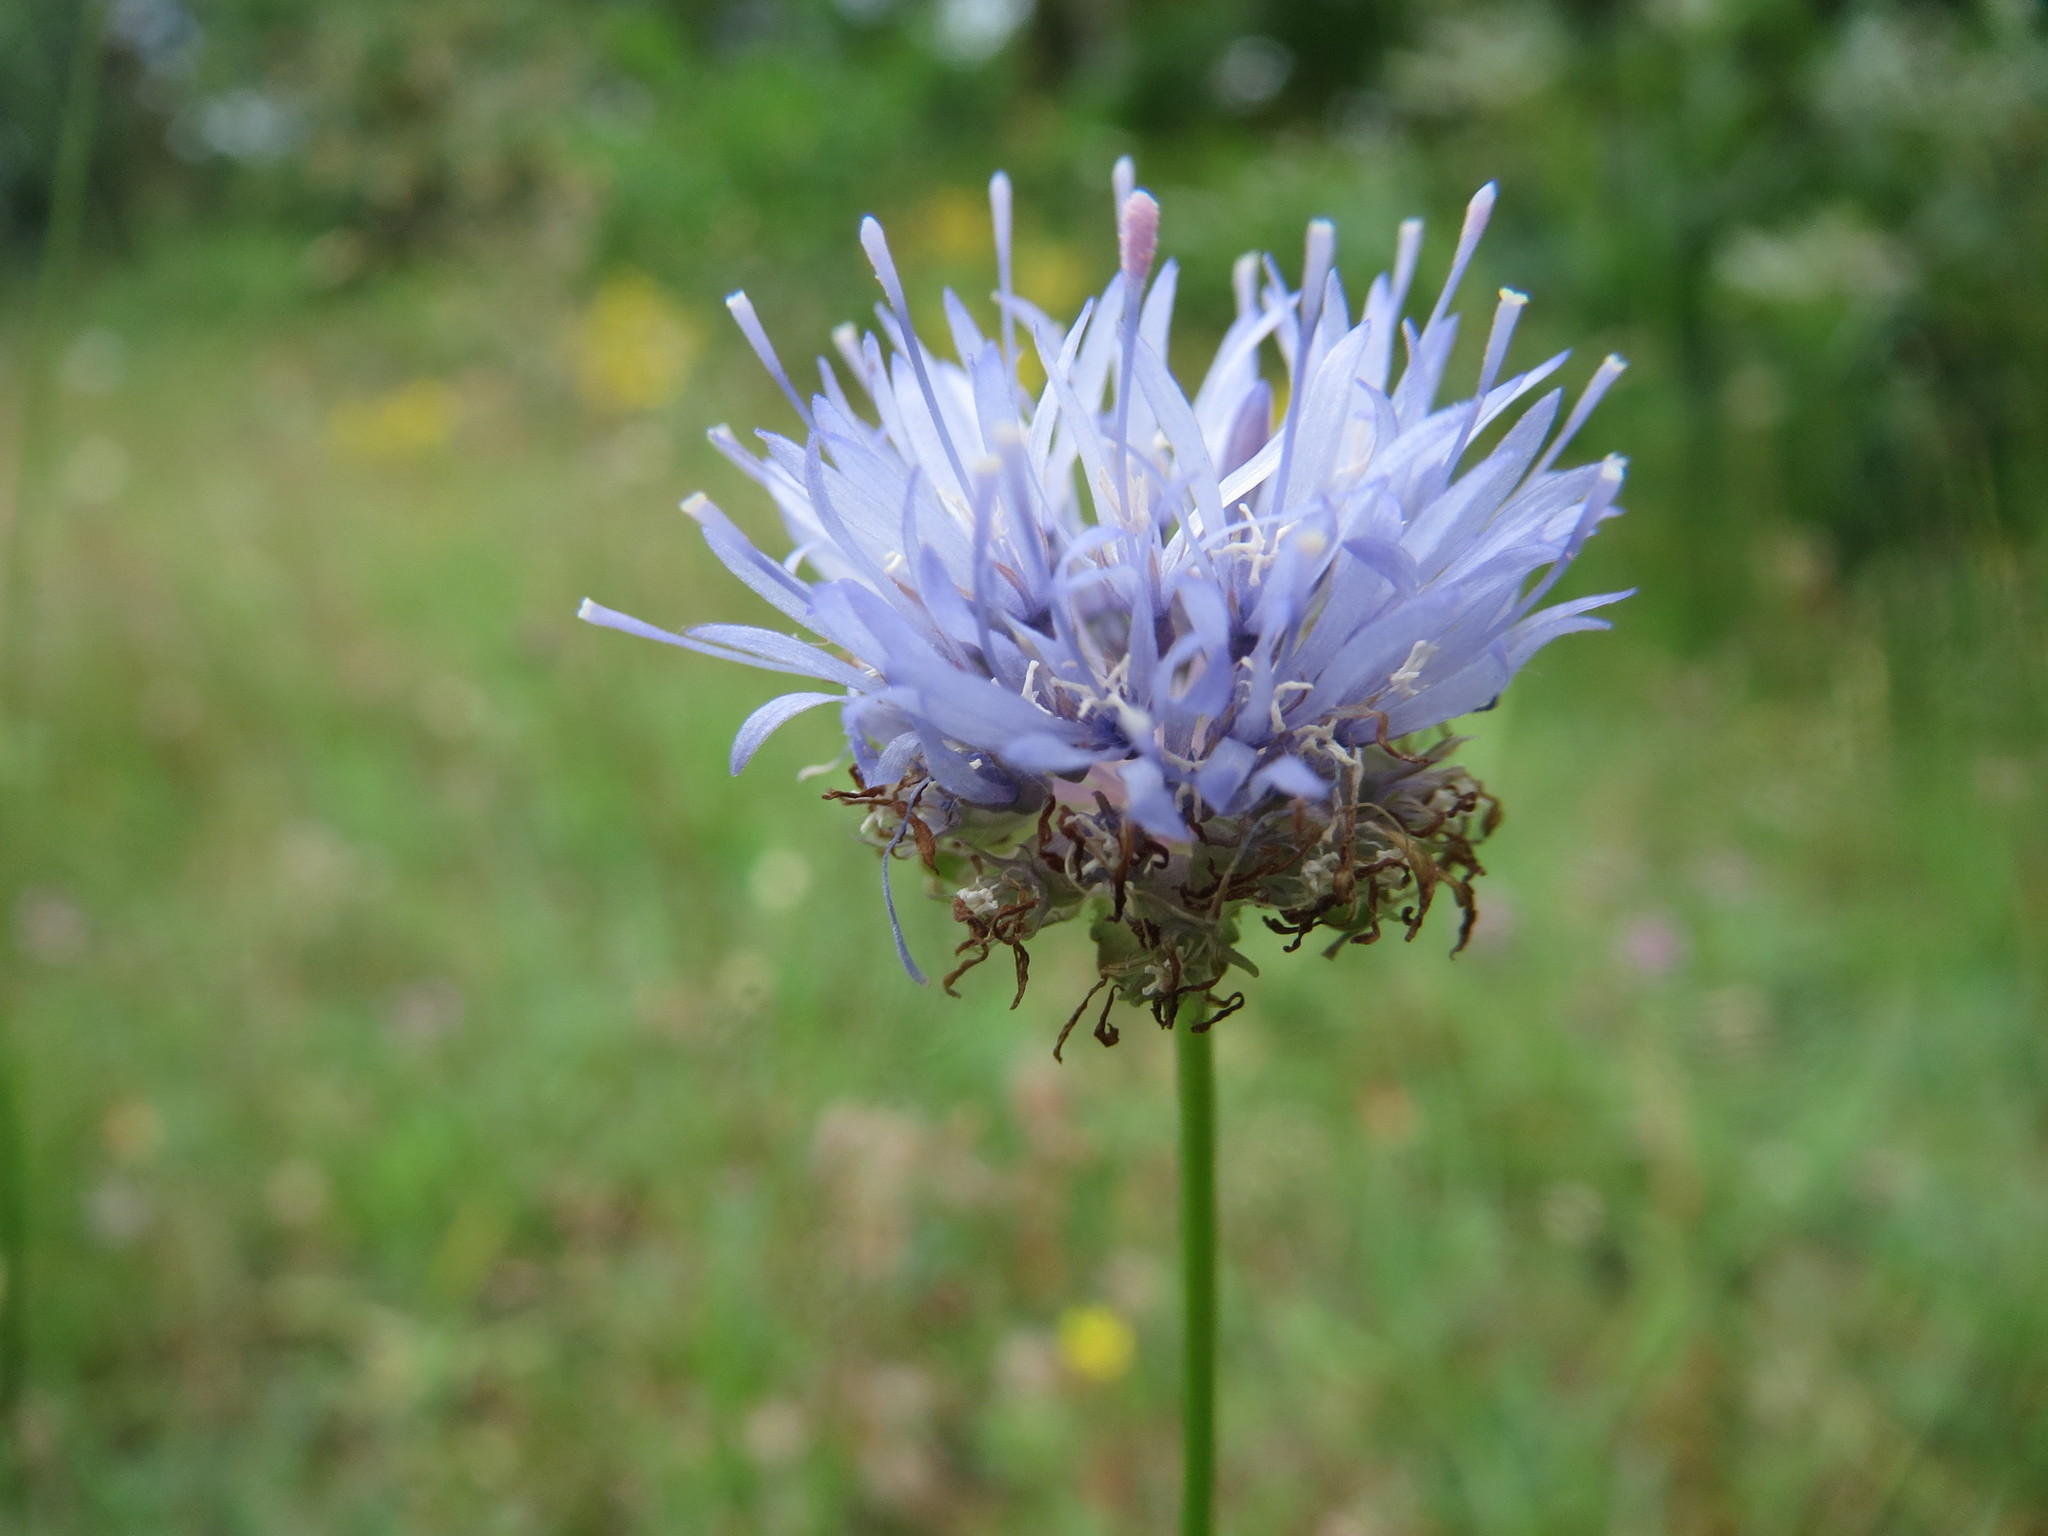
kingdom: Plantae
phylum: Tracheophyta
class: Magnoliopsida
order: Asterales
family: Campanulaceae
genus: Jasione
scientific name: Jasione montana
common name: Sheep's-bit
